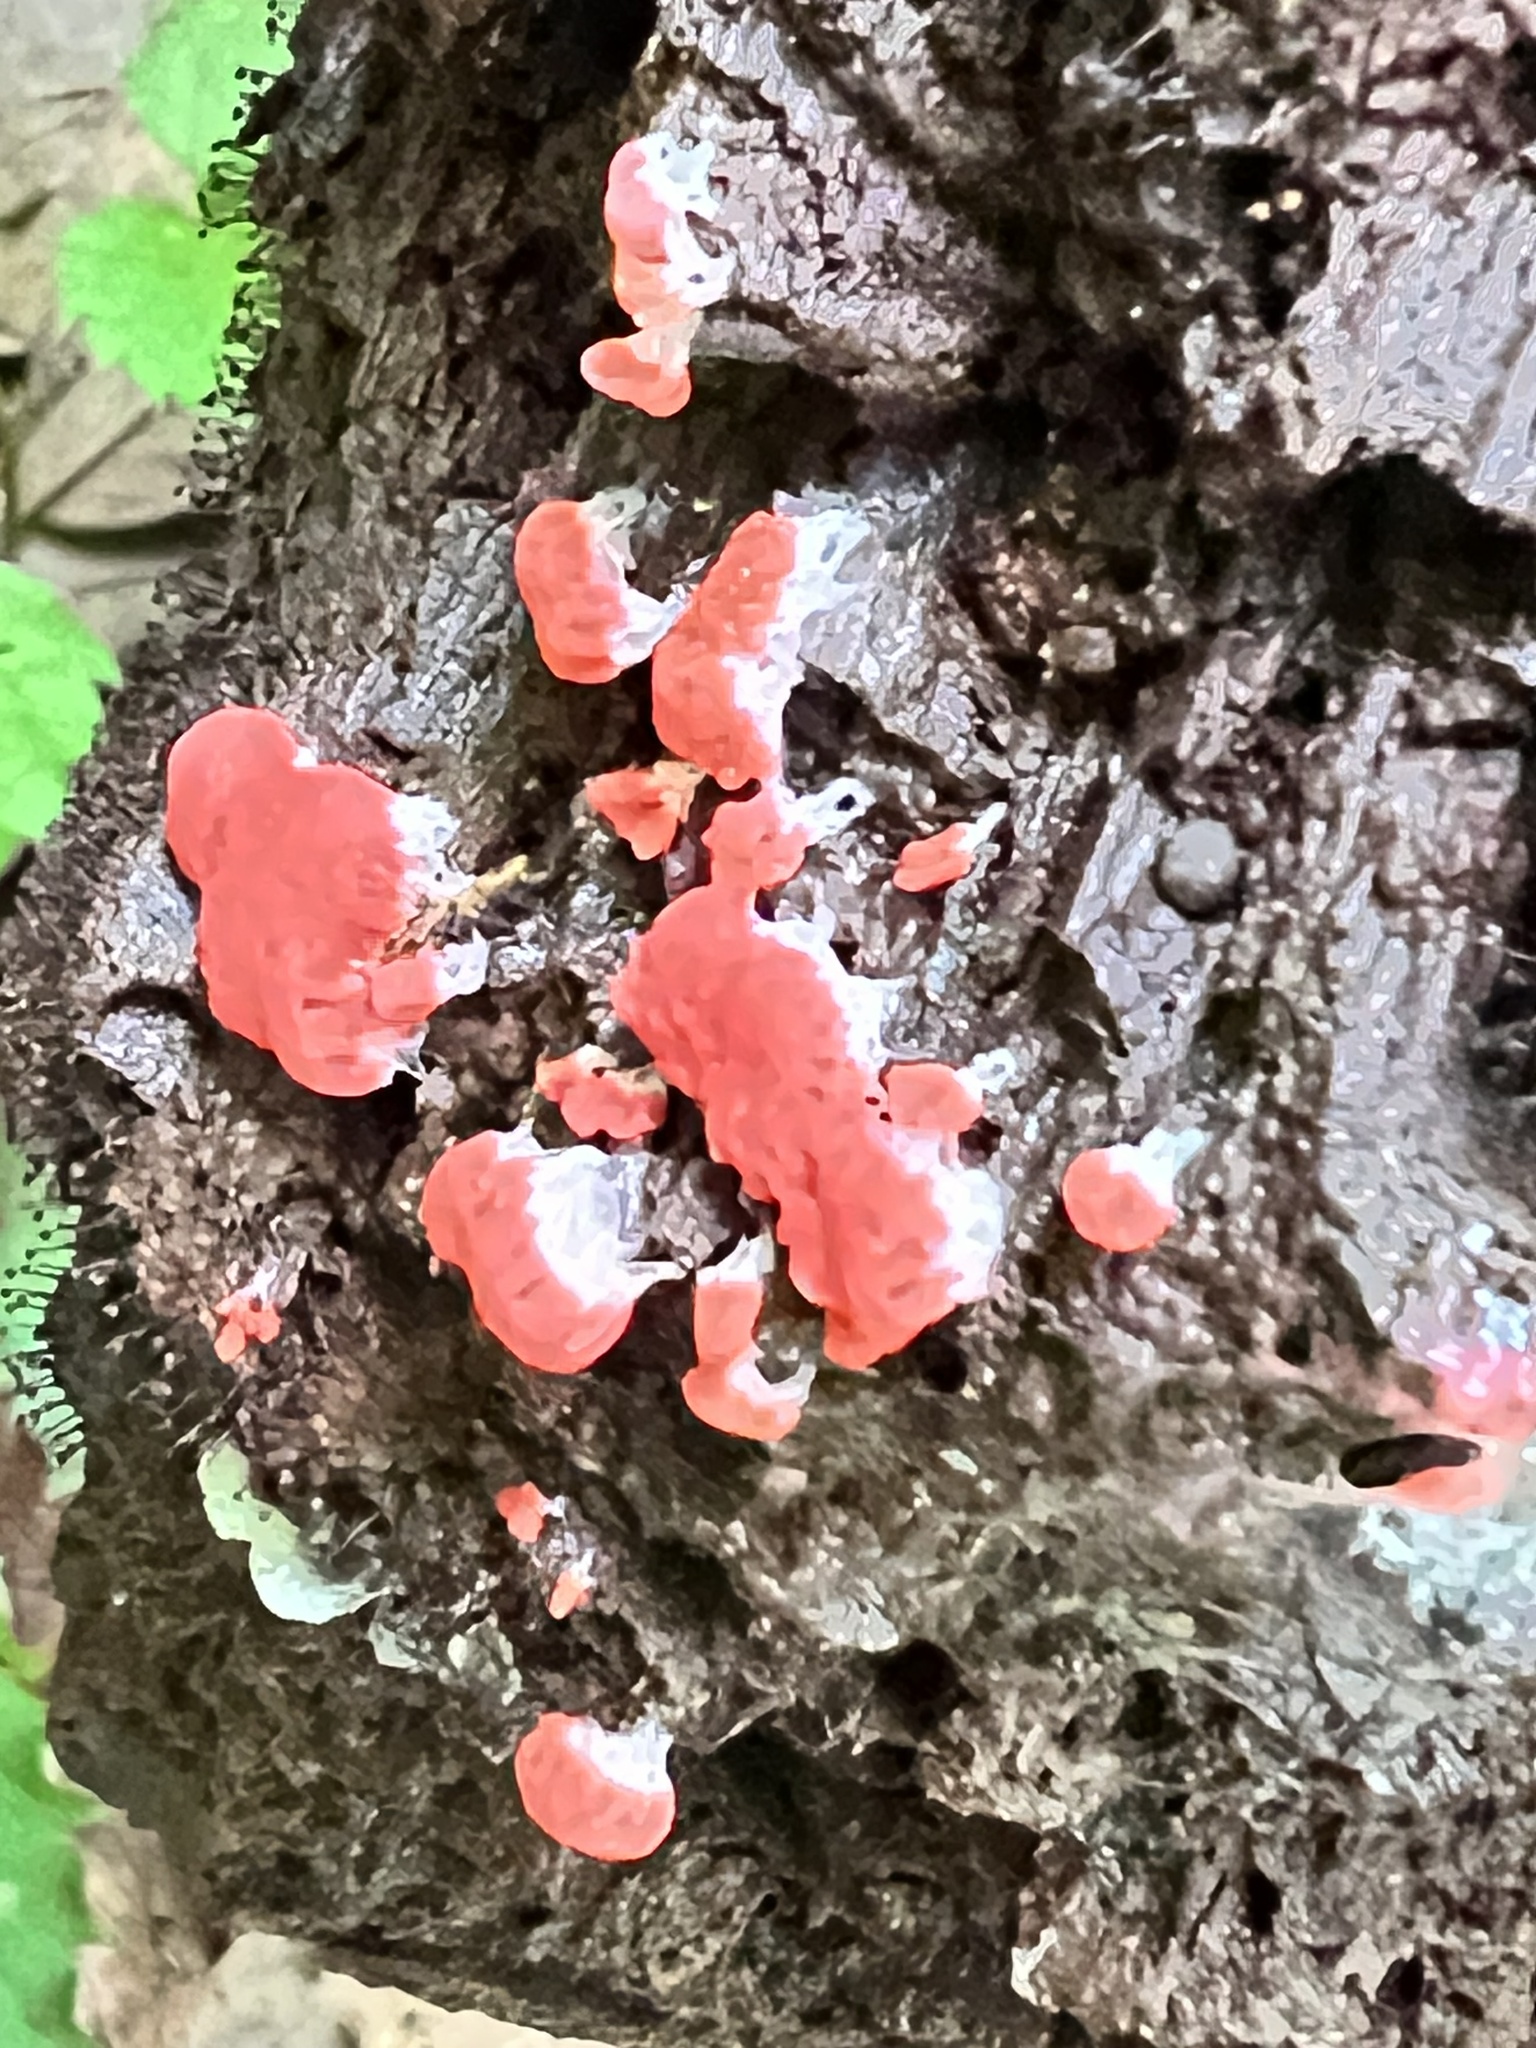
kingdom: Protozoa
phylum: Mycetozoa
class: Myxomycetes
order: Cribrariales
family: Tubiferaceae
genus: Tubifera
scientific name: Tubifera ferruginosa
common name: Red raspberry slime mold
